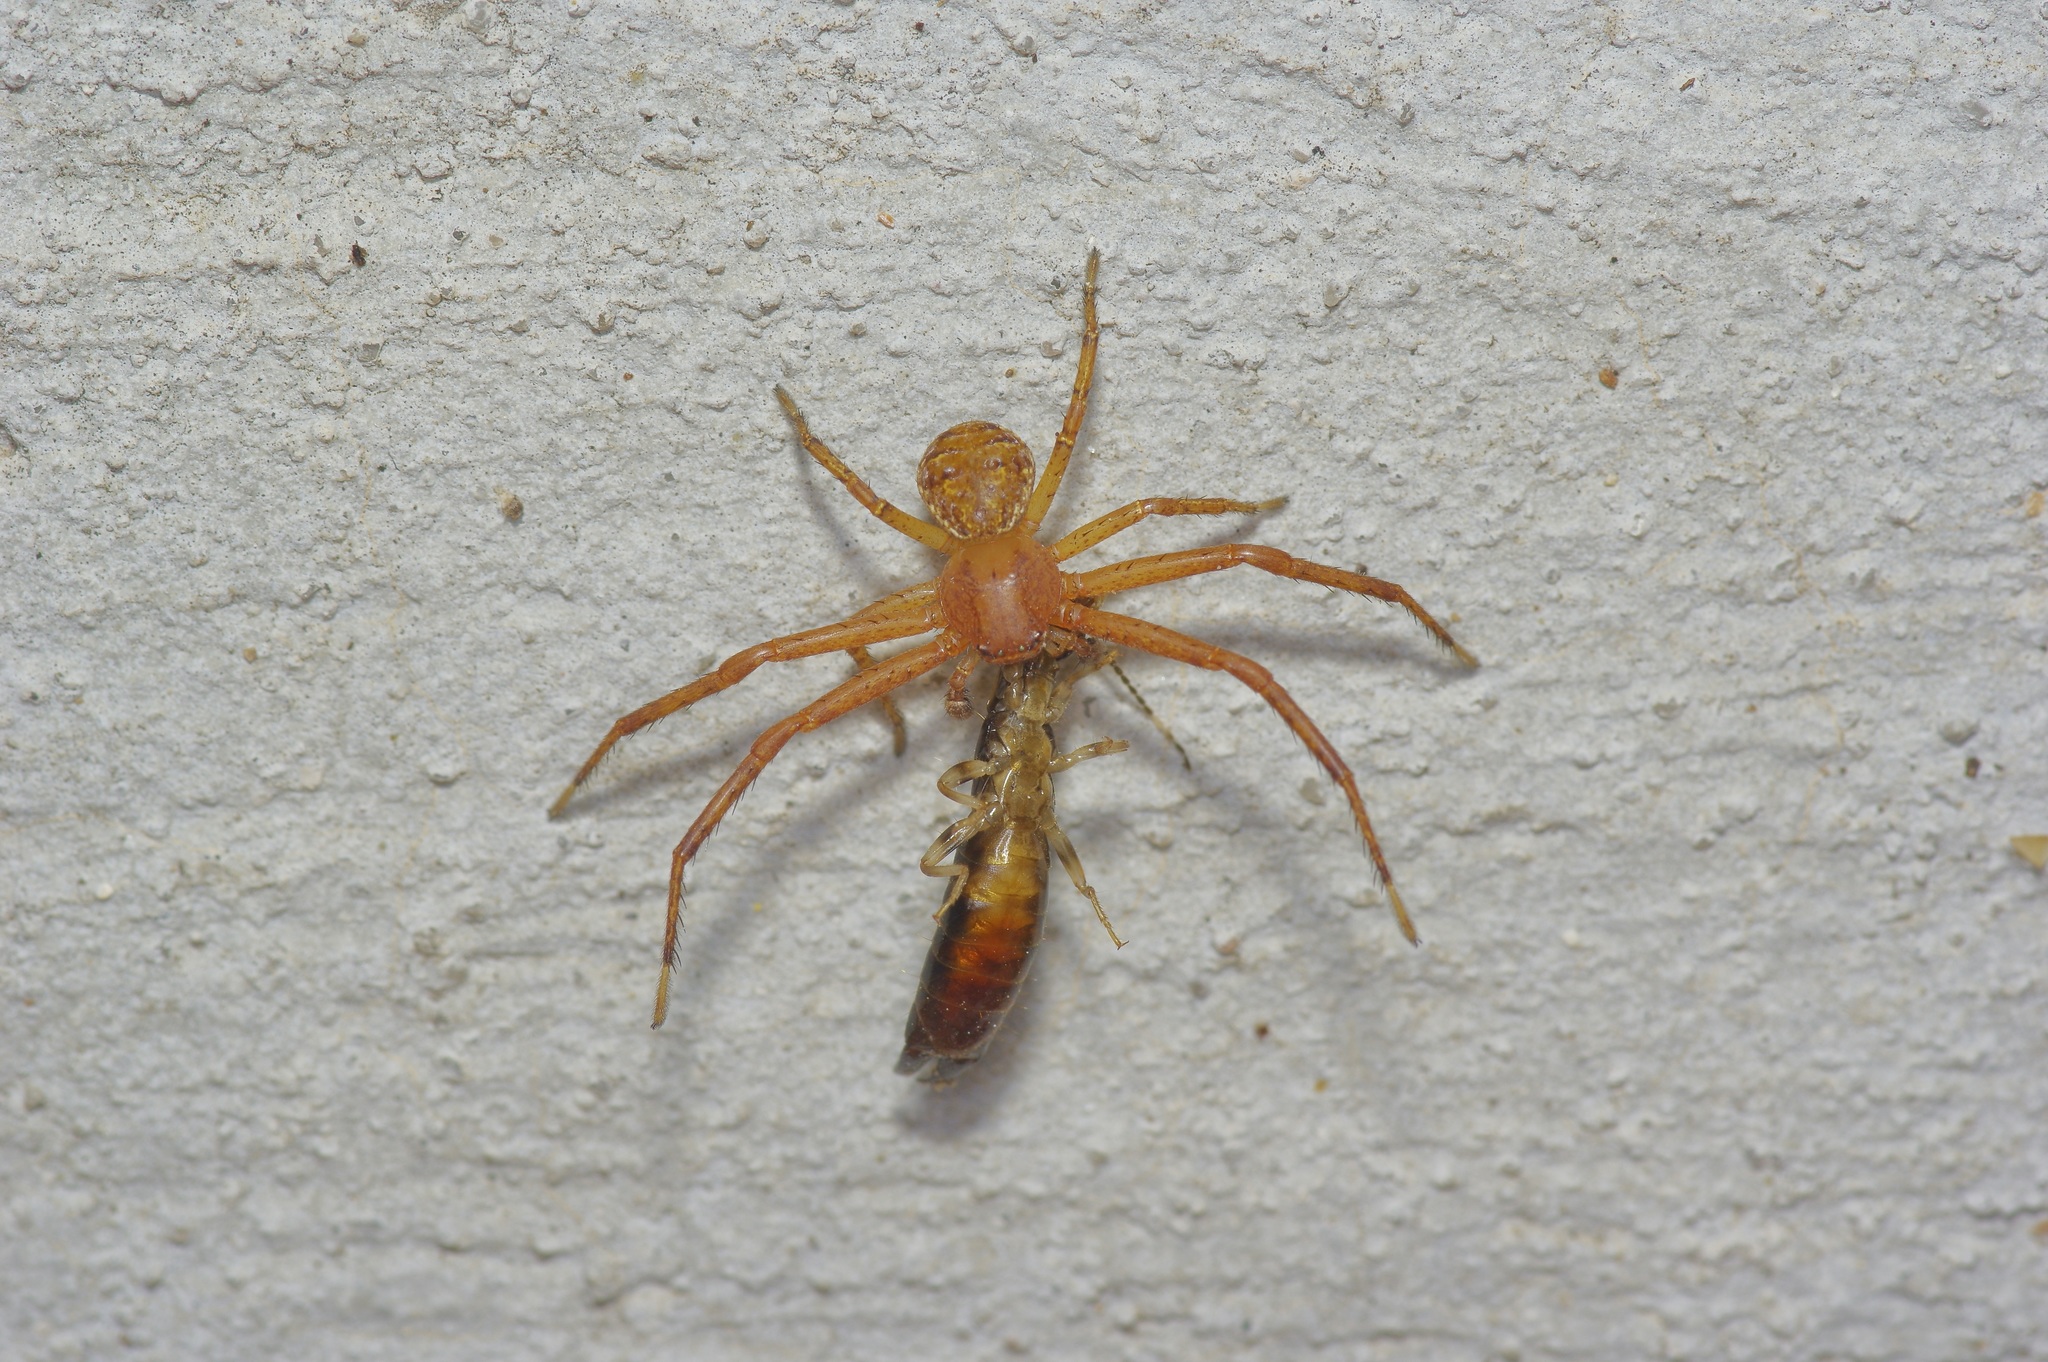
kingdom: Animalia
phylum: Arthropoda
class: Arachnida
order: Araneae
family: Thomisidae
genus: Xysticus
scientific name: Xysticus funestus
